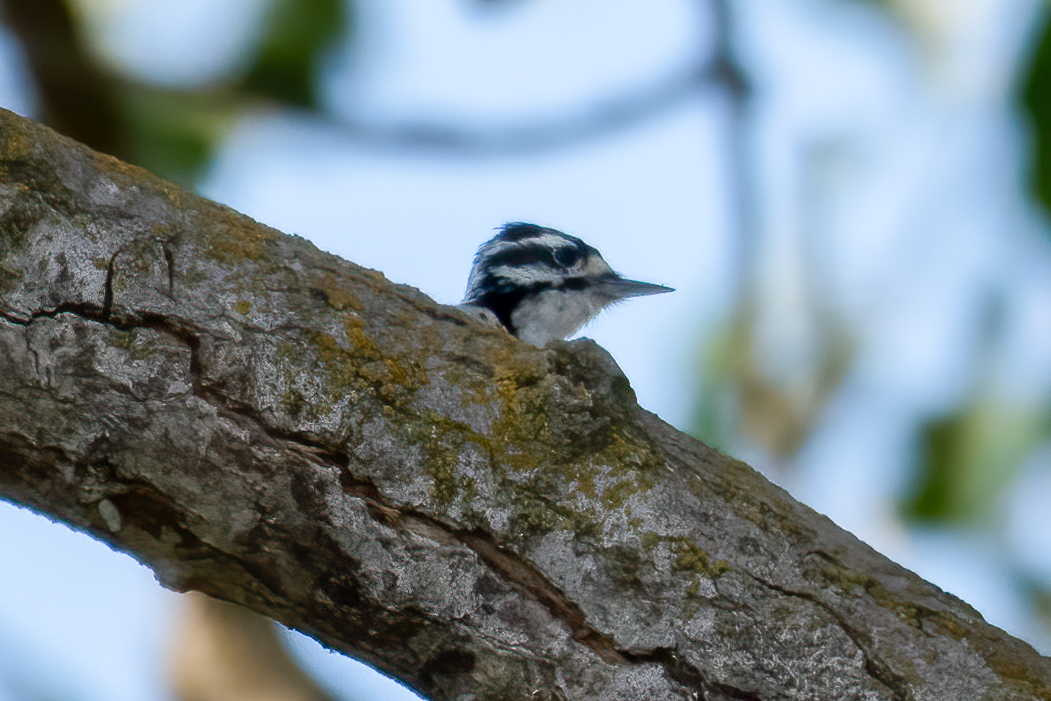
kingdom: Animalia
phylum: Chordata
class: Aves
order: Piciformes
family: Picidae
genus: Dryobates
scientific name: Dryobates nuttallii
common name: Nuttall's woodpecker
